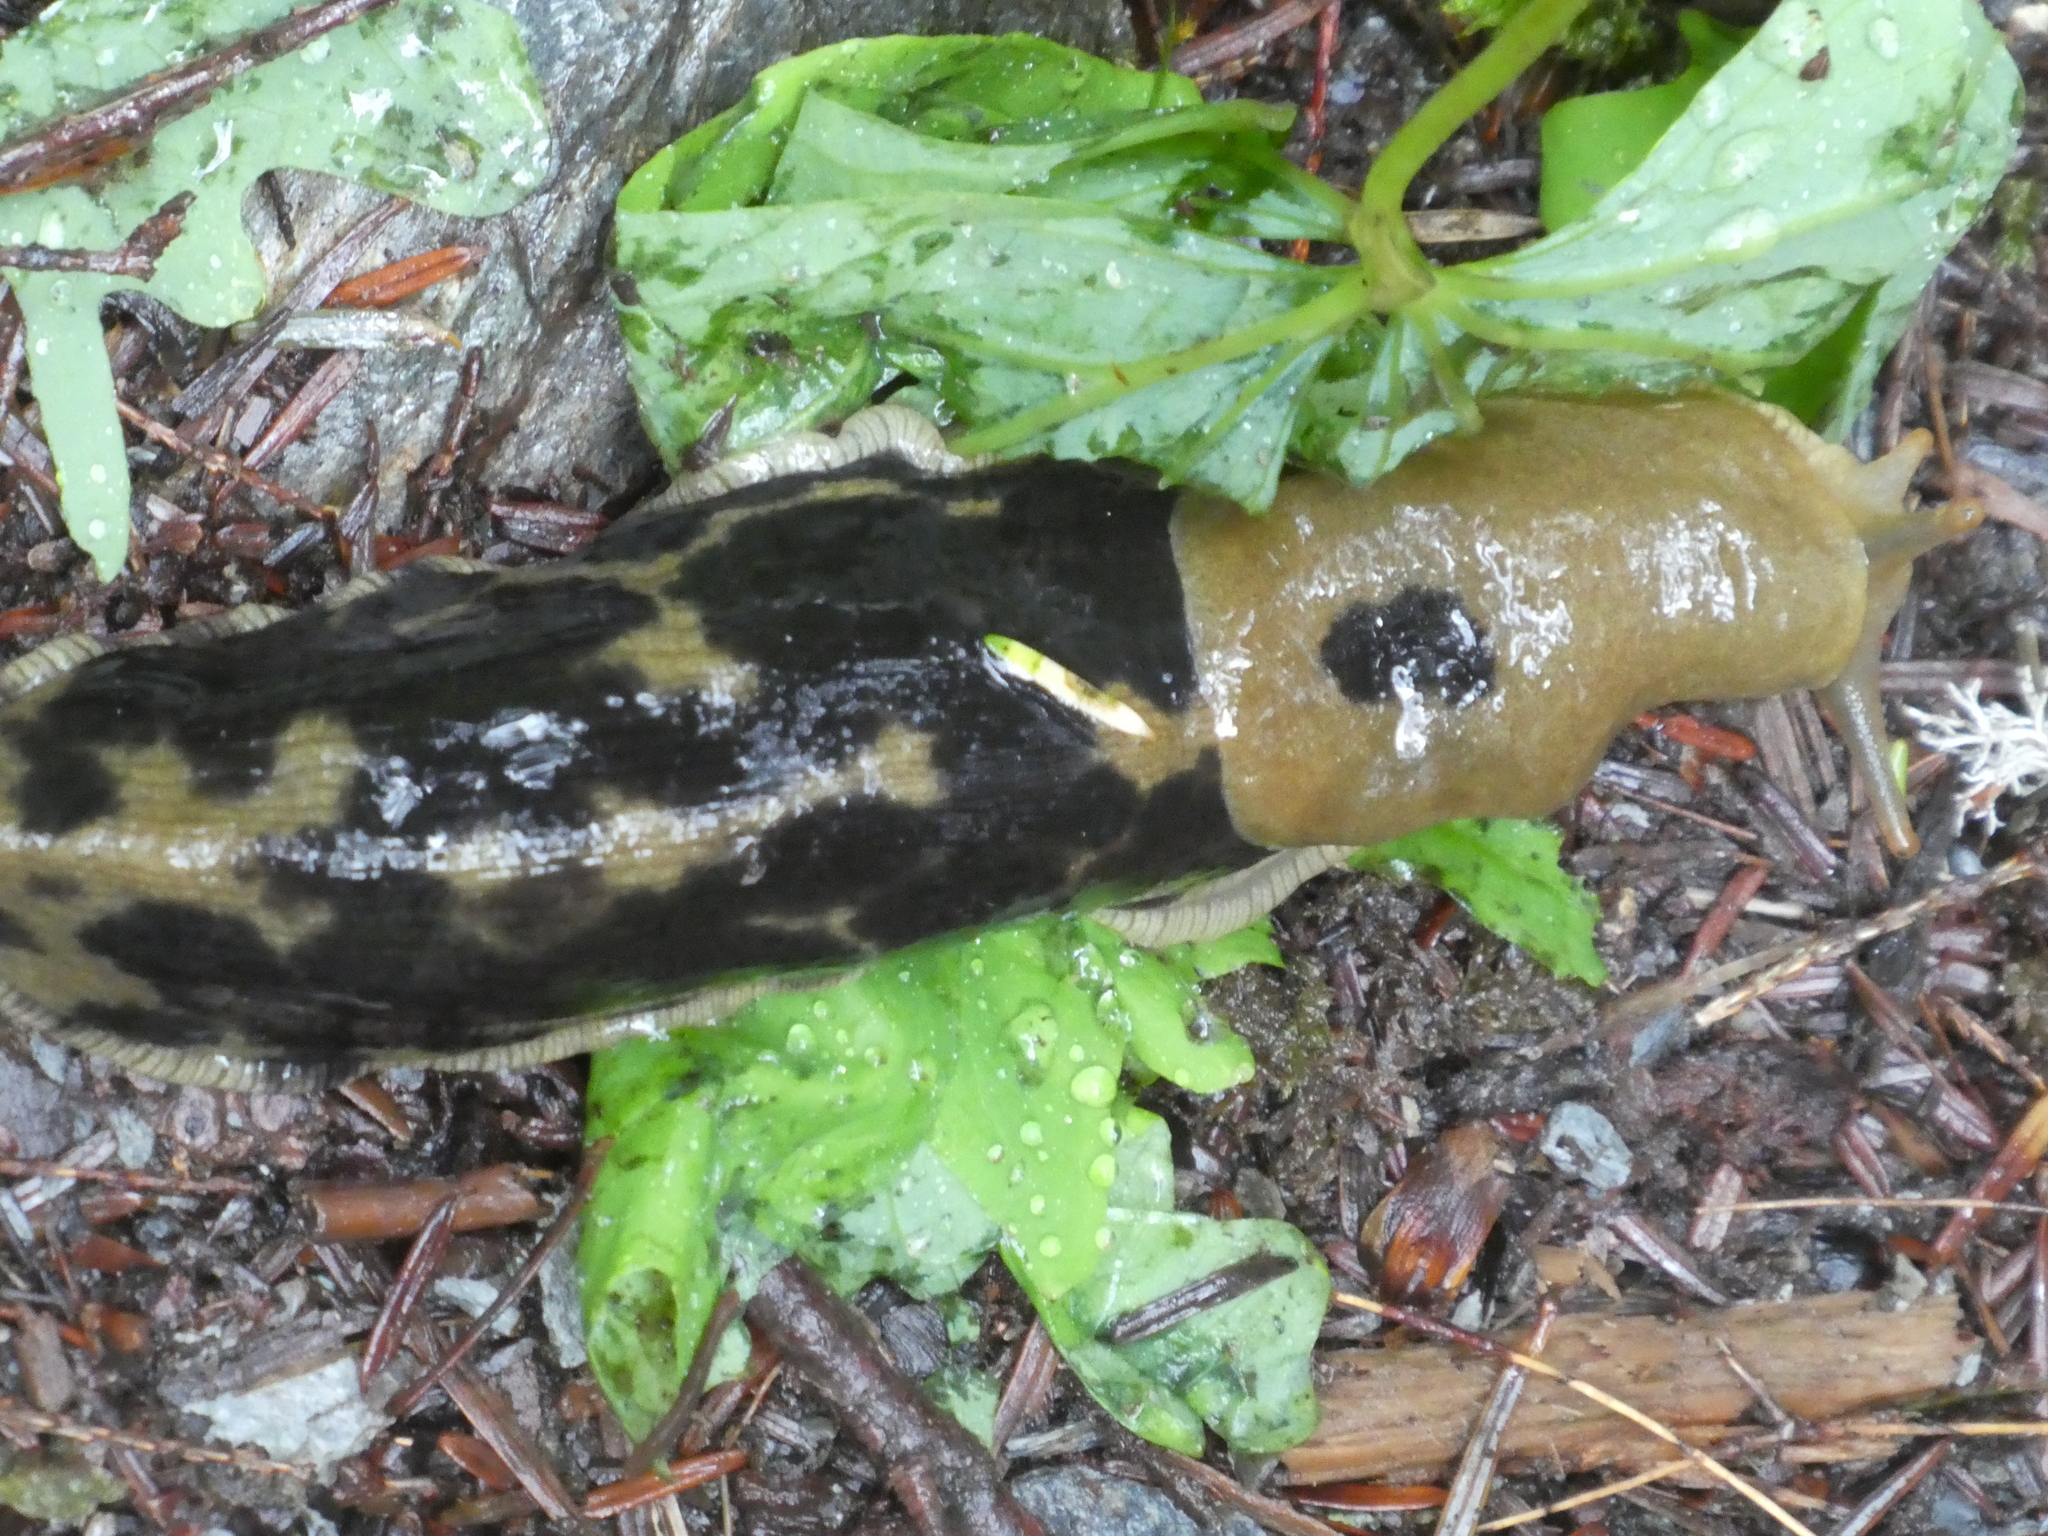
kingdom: Animalia
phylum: Mollusca
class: Gastropoda
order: Stylommatophora
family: Ariolimacidae
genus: Ariolimax
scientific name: Ariolimax columbianus
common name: Pacific banana slug
